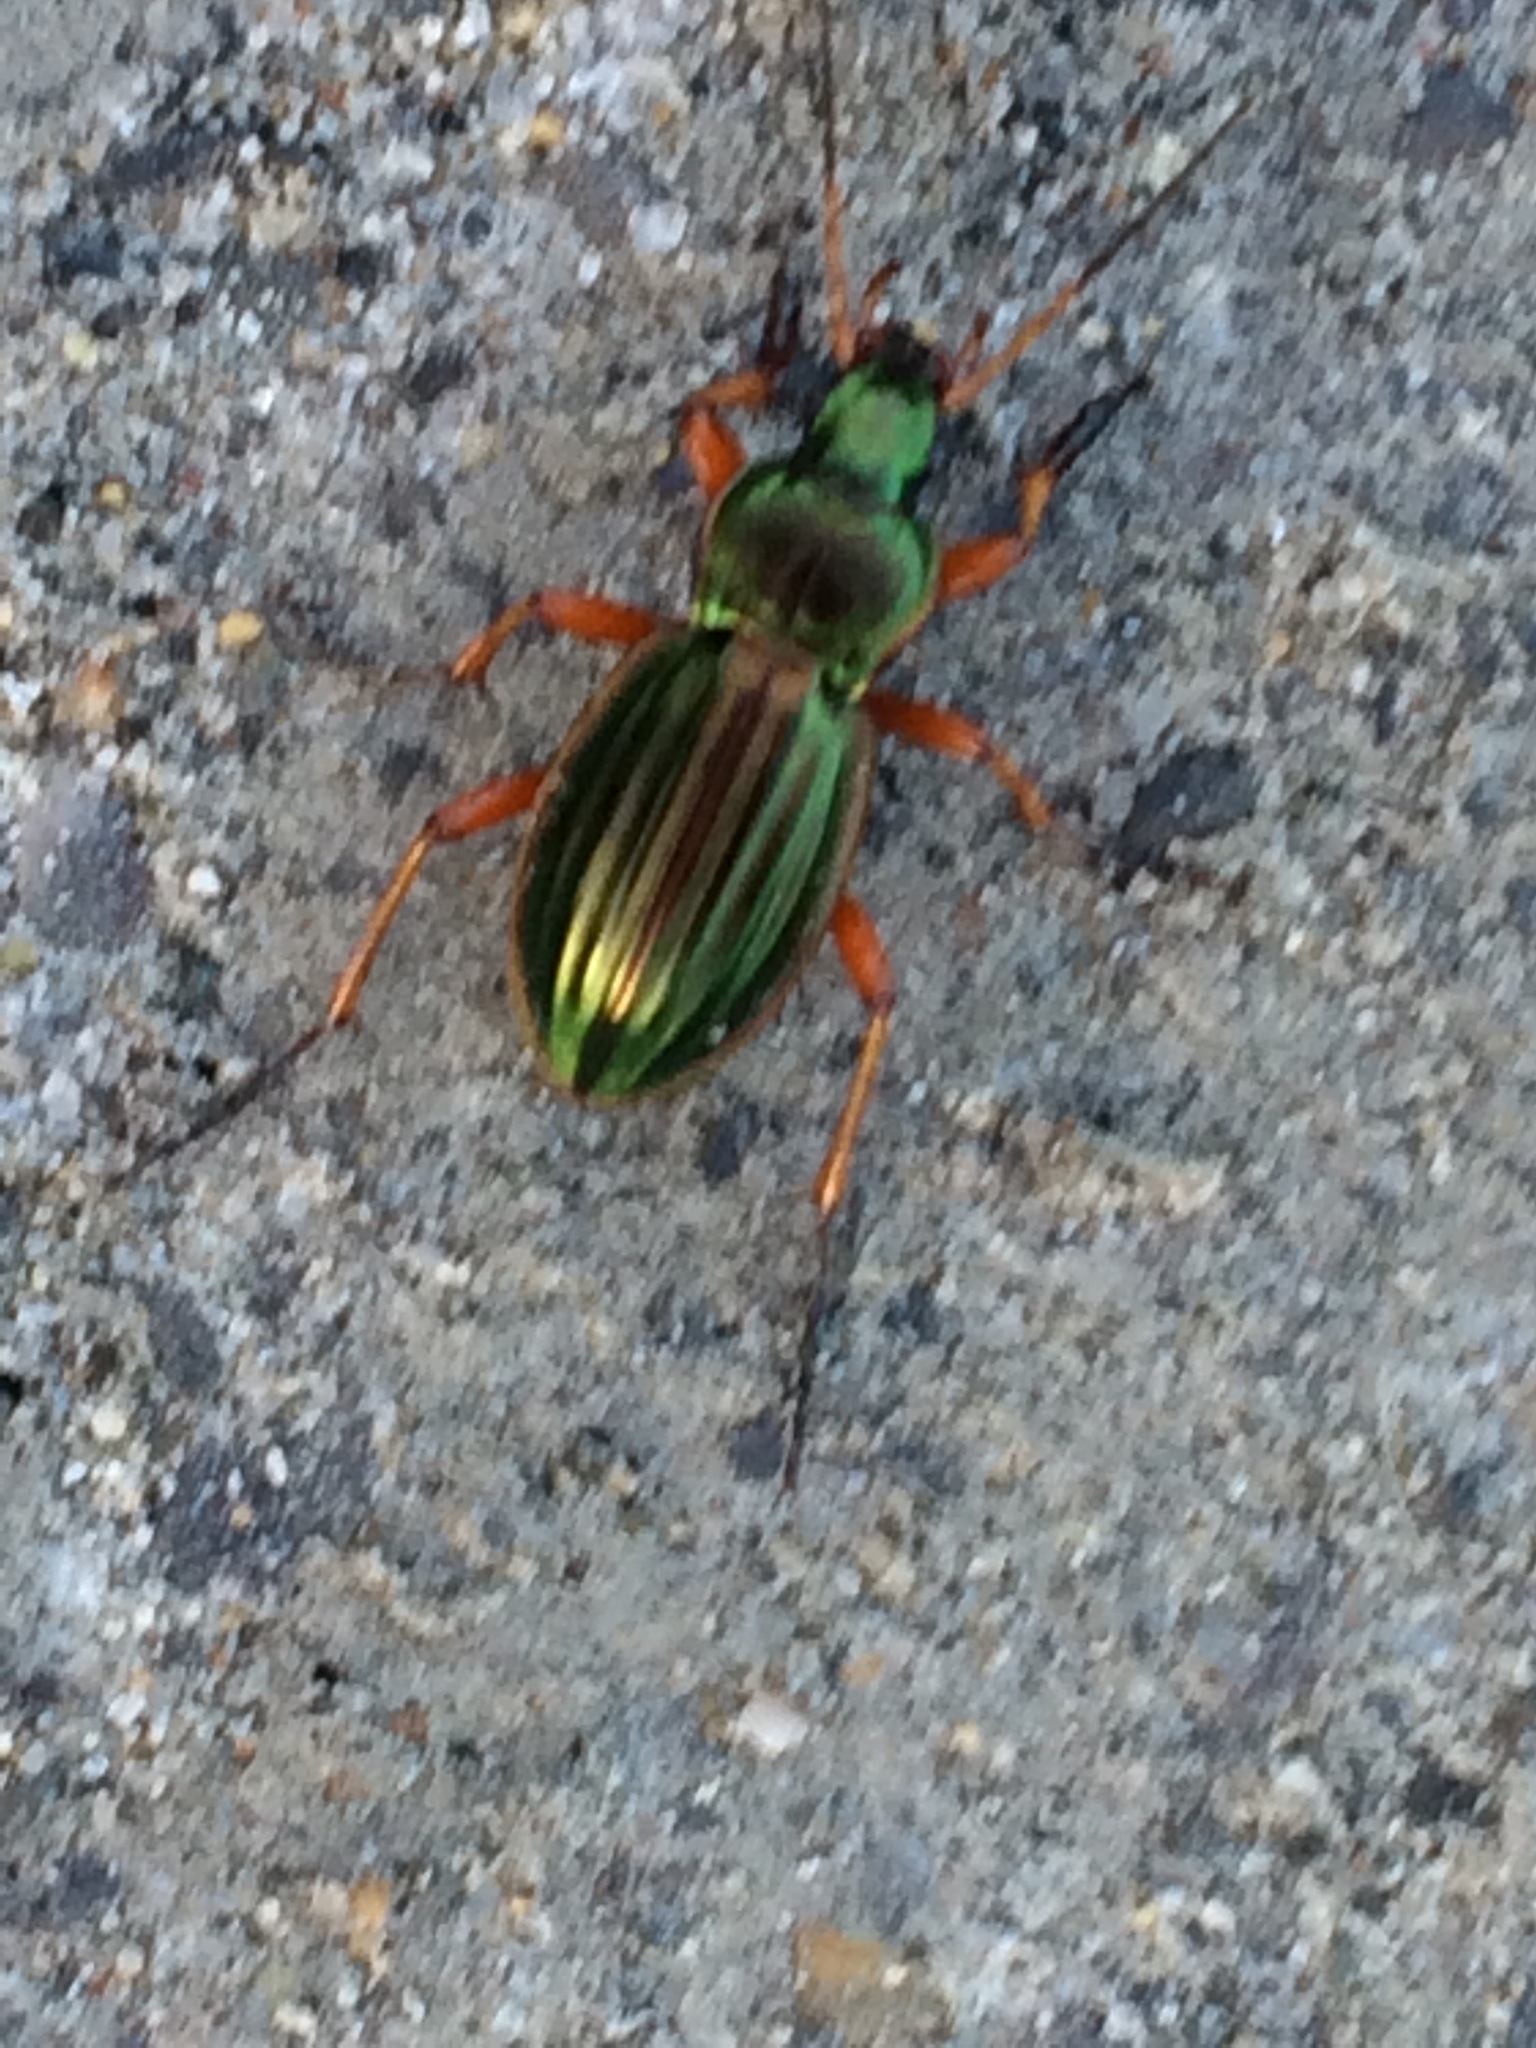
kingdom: Animalia
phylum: Arthropoda
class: Insecta
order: Coleoptera
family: Carabidae
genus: Carabus
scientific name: Carabus auratus
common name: Golden ground beetle
